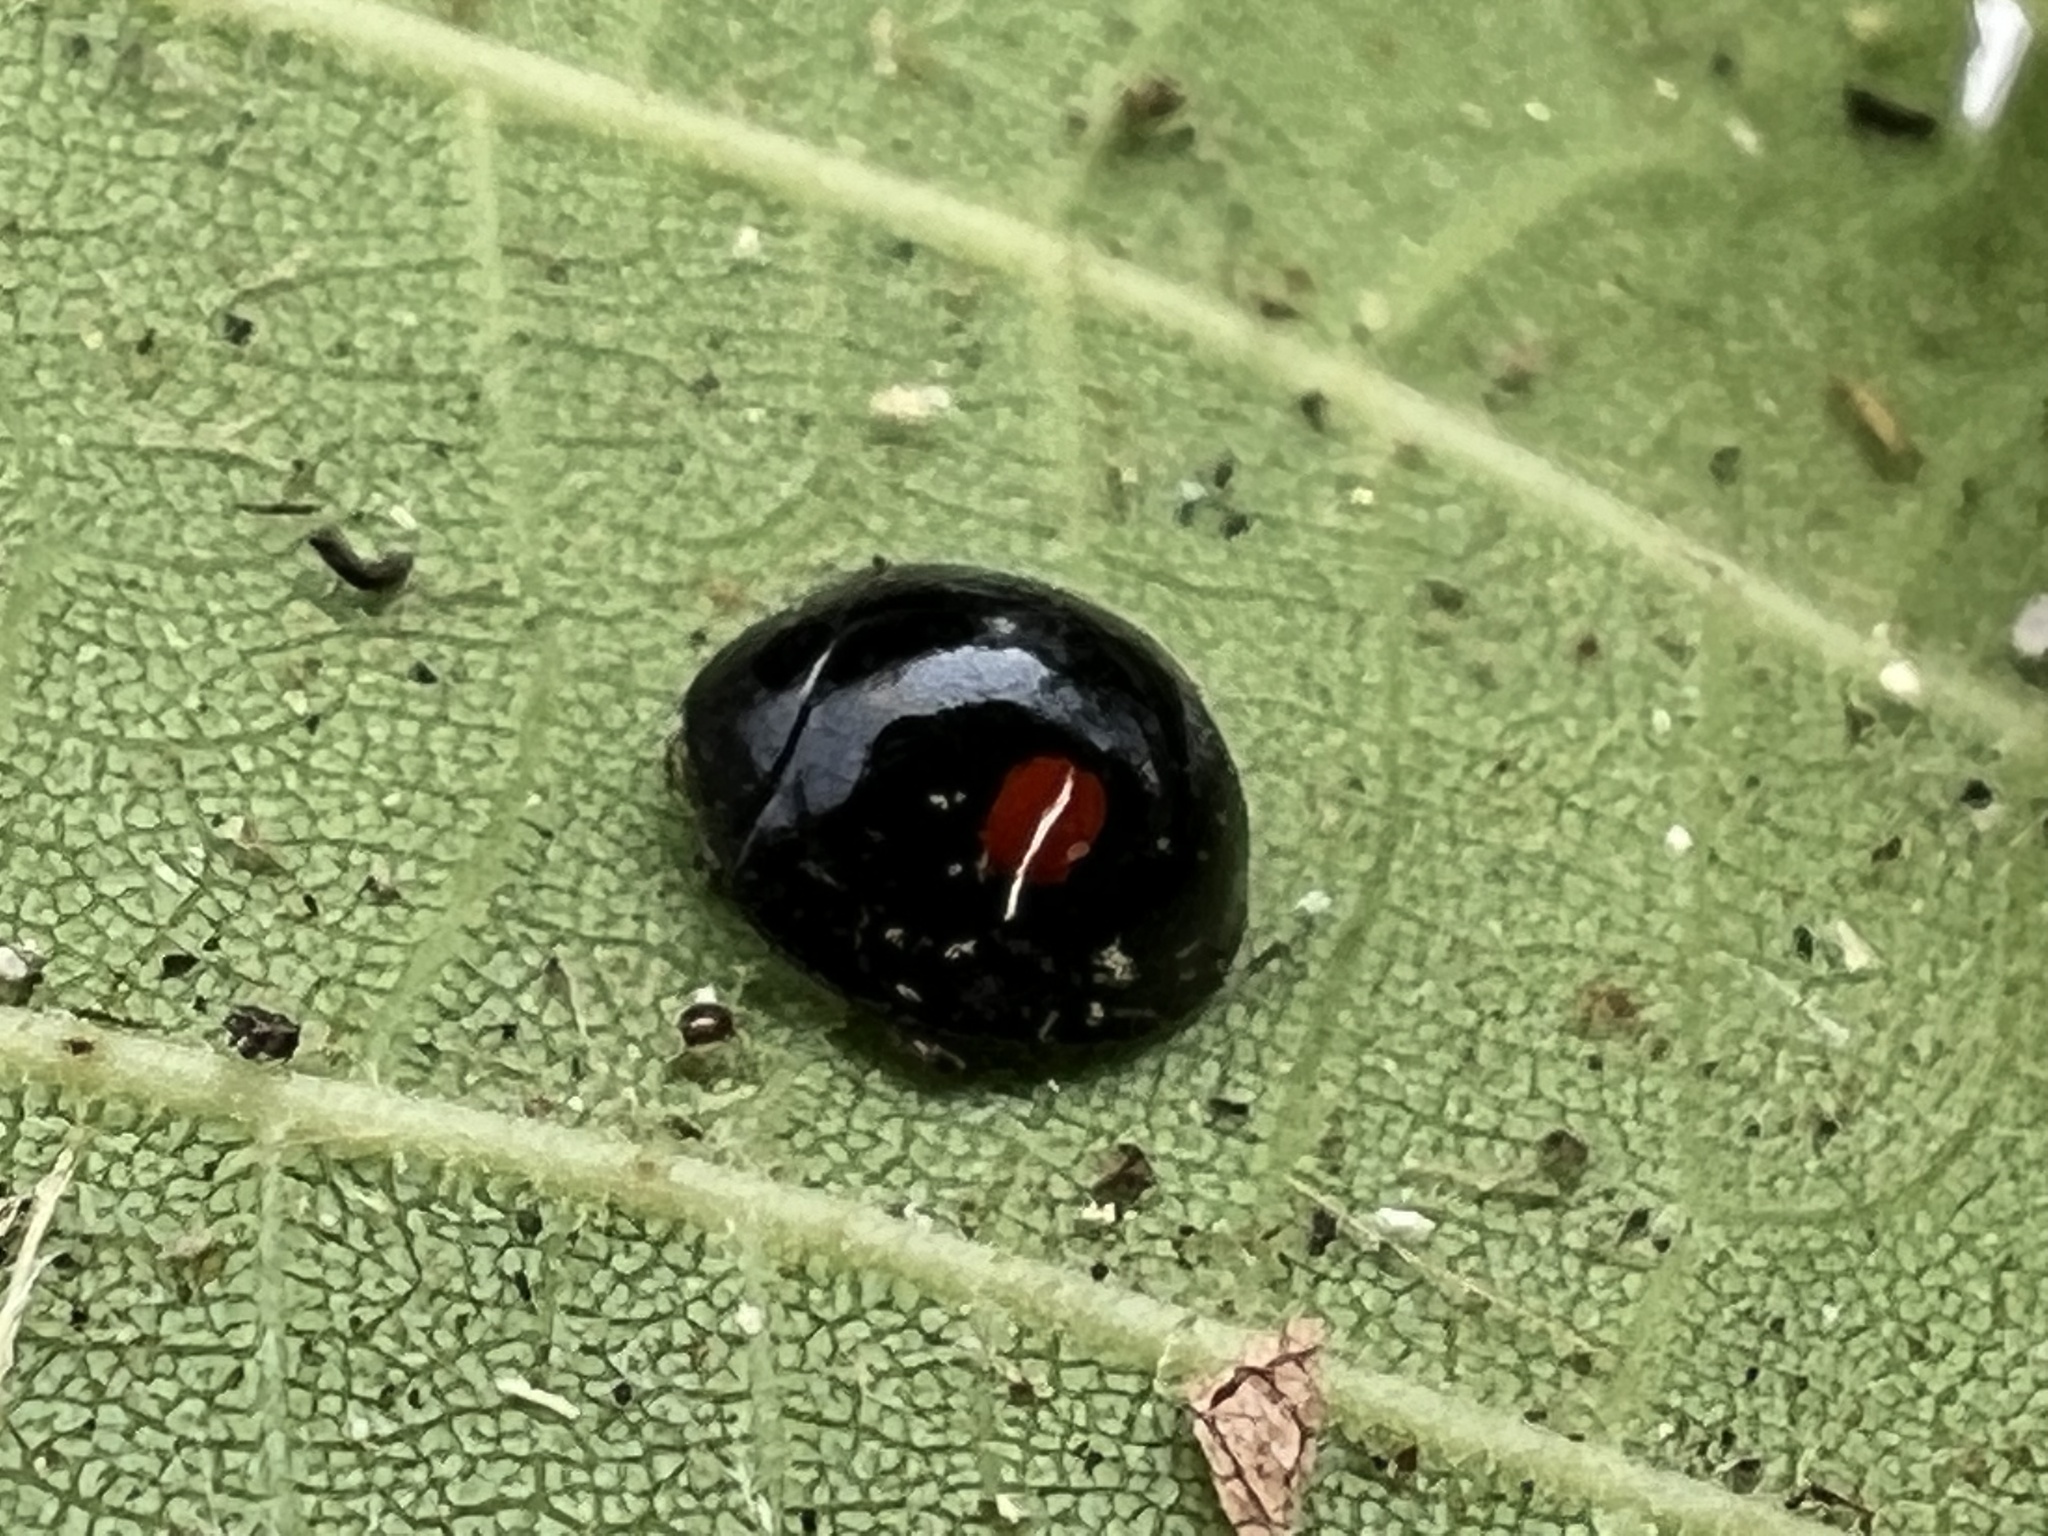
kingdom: Animalia
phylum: Arthropoda
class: Insecta
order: Coleoptera
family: Coccinellidae
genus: Chilocorus
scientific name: Chilocorus stigma
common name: Twicestabbed lady beetle
